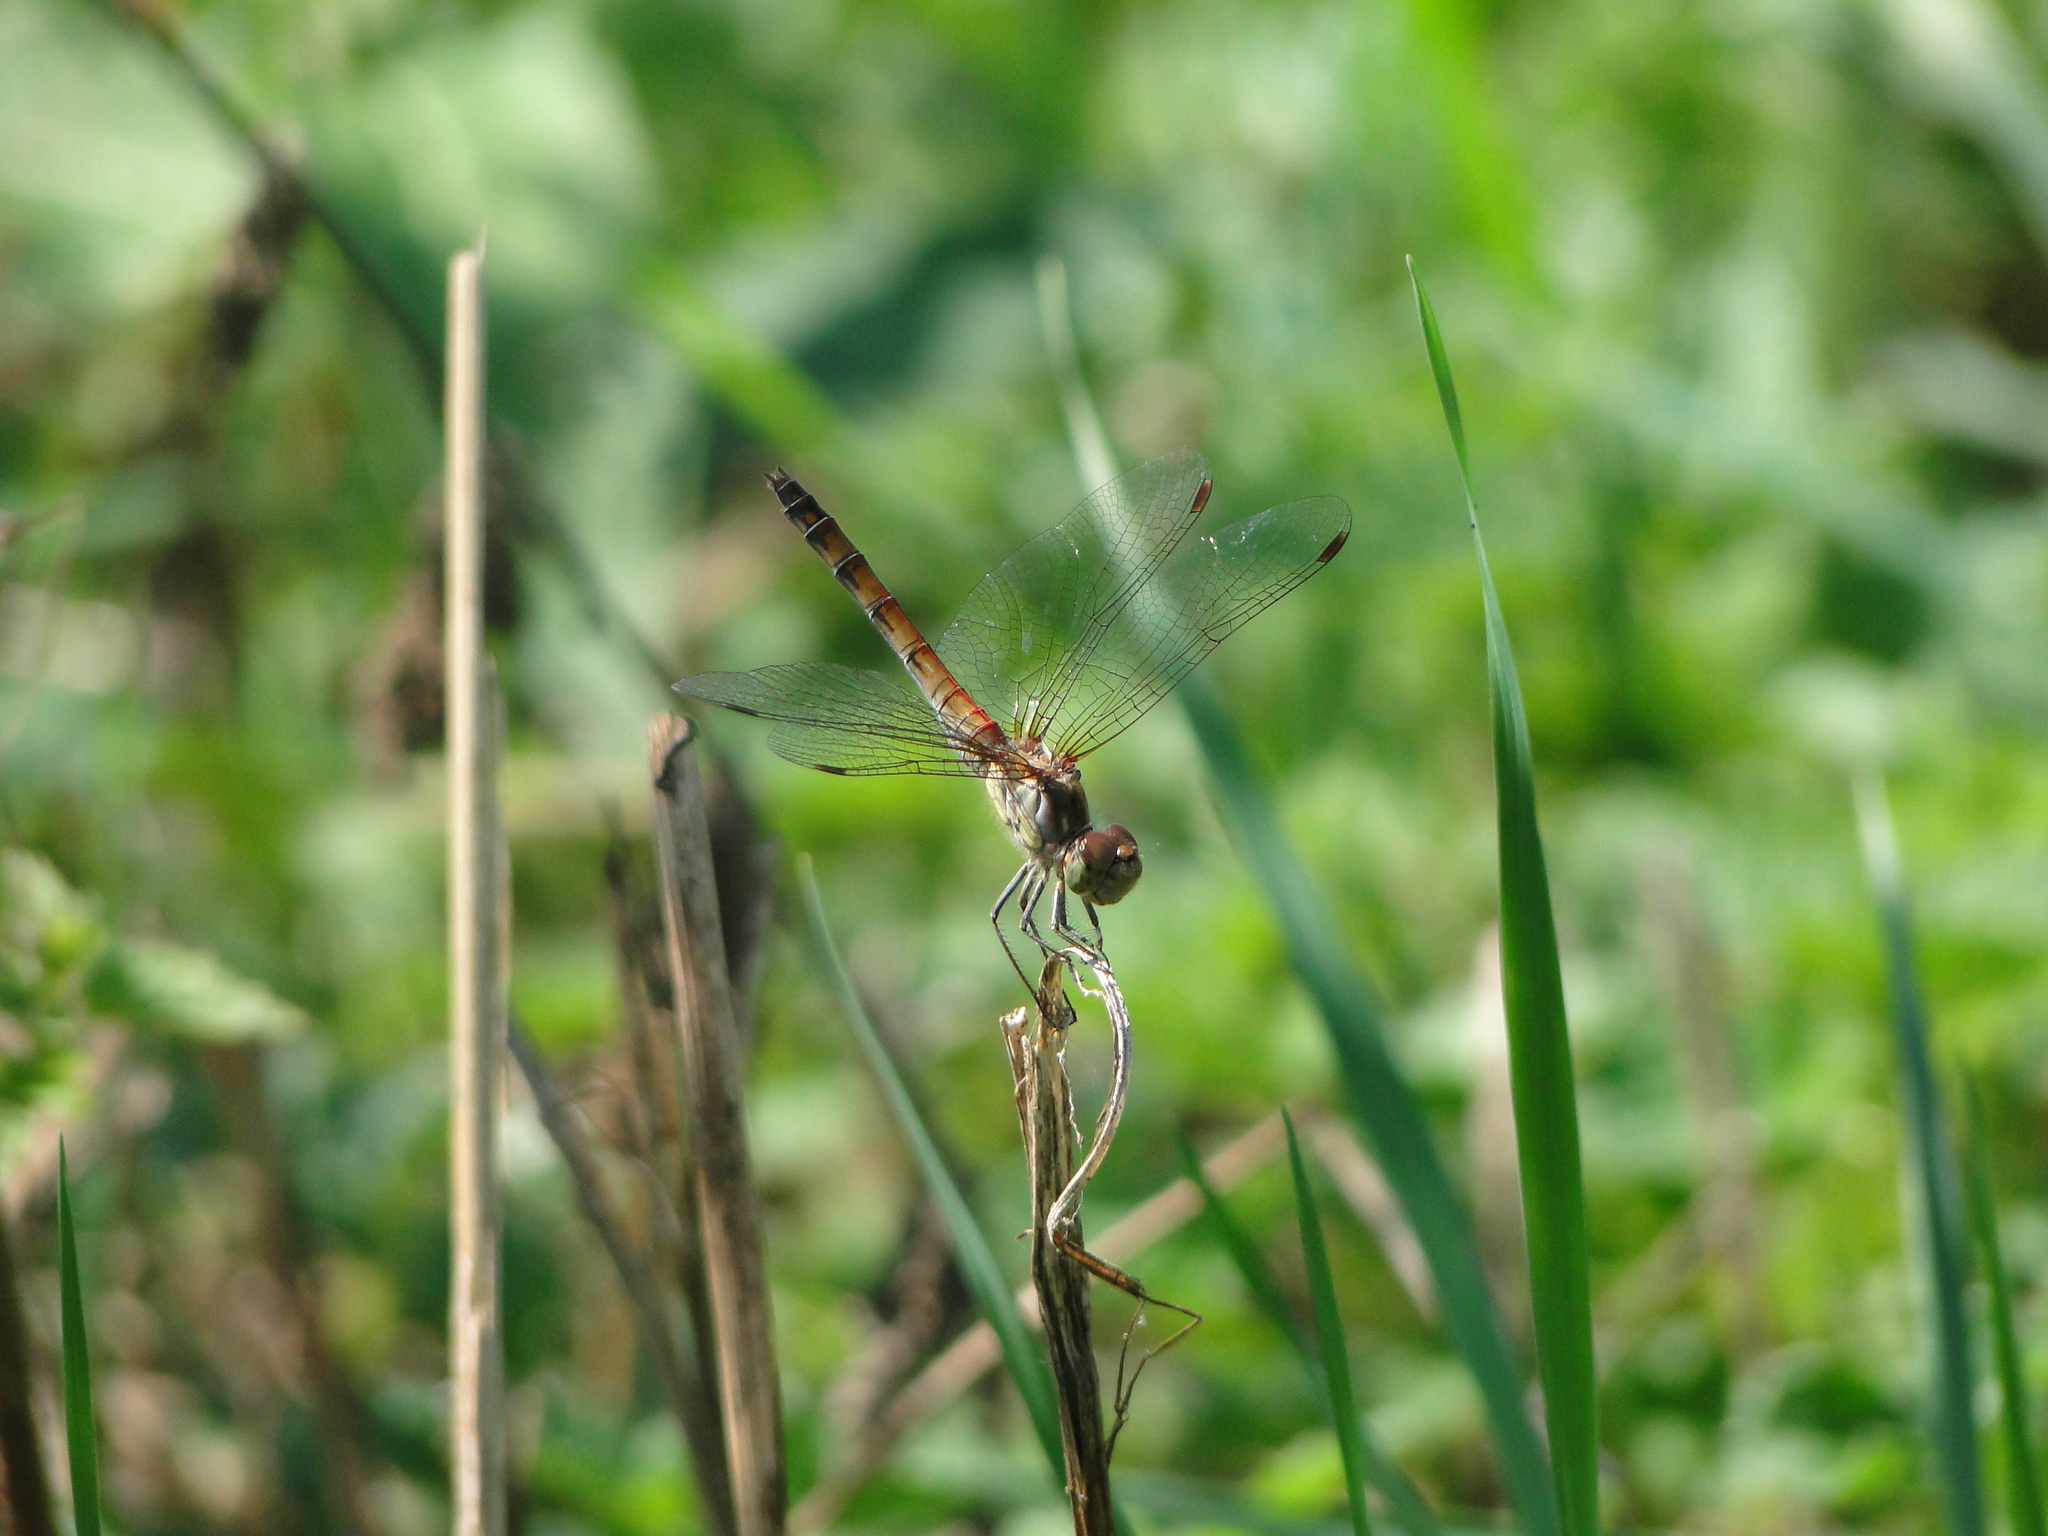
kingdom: Animalia
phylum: Arthropoda
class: Insecta
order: Odonata
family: Libellulidae
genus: Sympetrum
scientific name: Sympetrum striolatum
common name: Common darter
